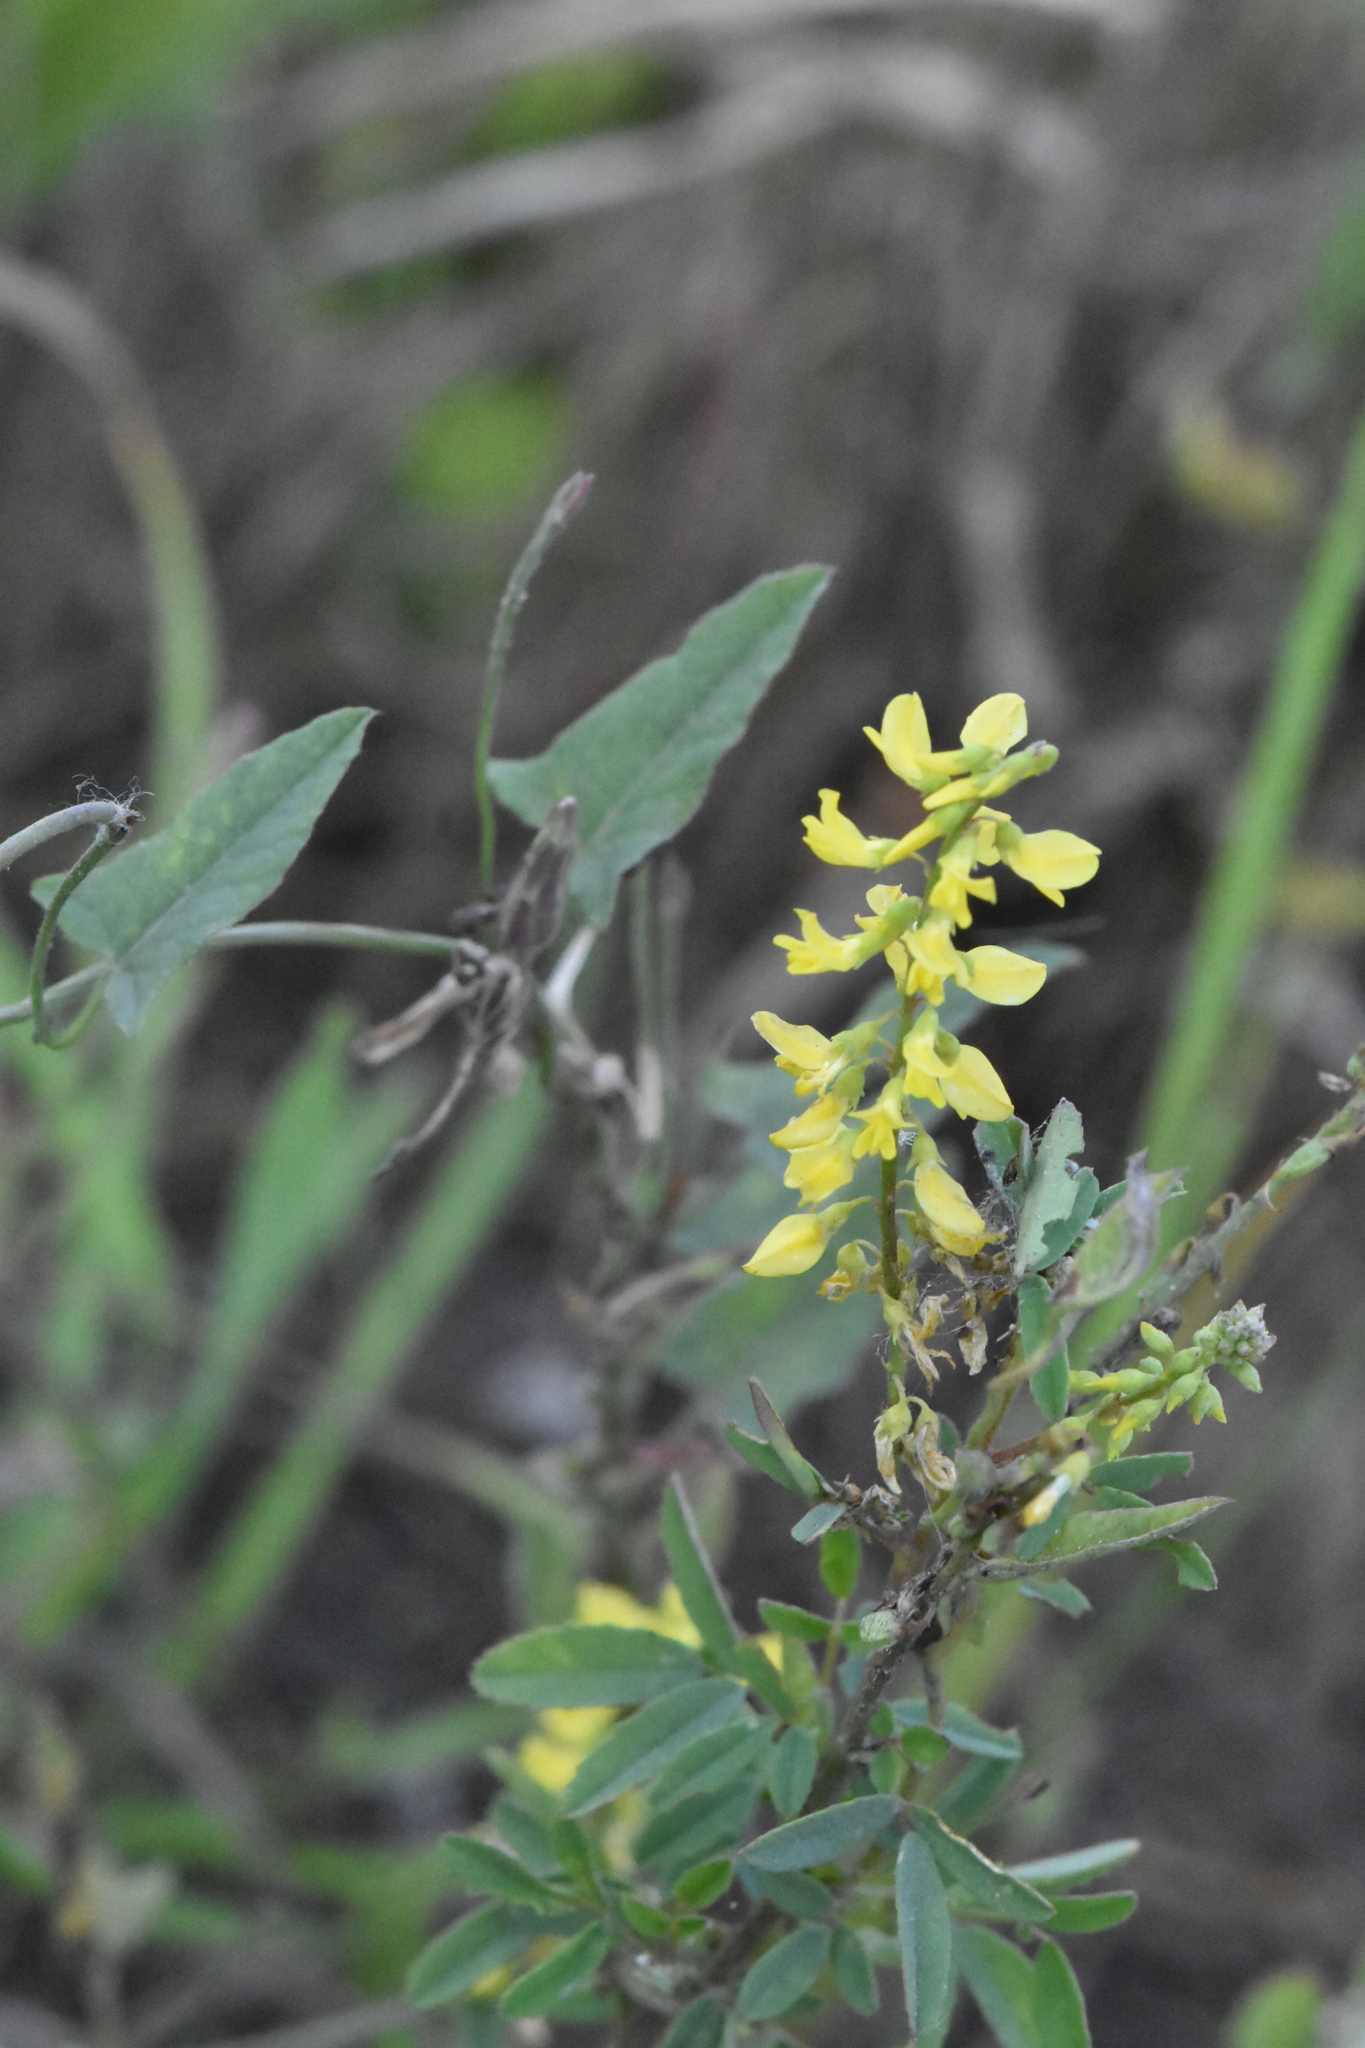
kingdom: Plantae
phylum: Tracheophyta
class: Magnoliopsida
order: Fabales
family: Fabaceae
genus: Melilotus
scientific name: Melilotus officinalis
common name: Sweetclover
